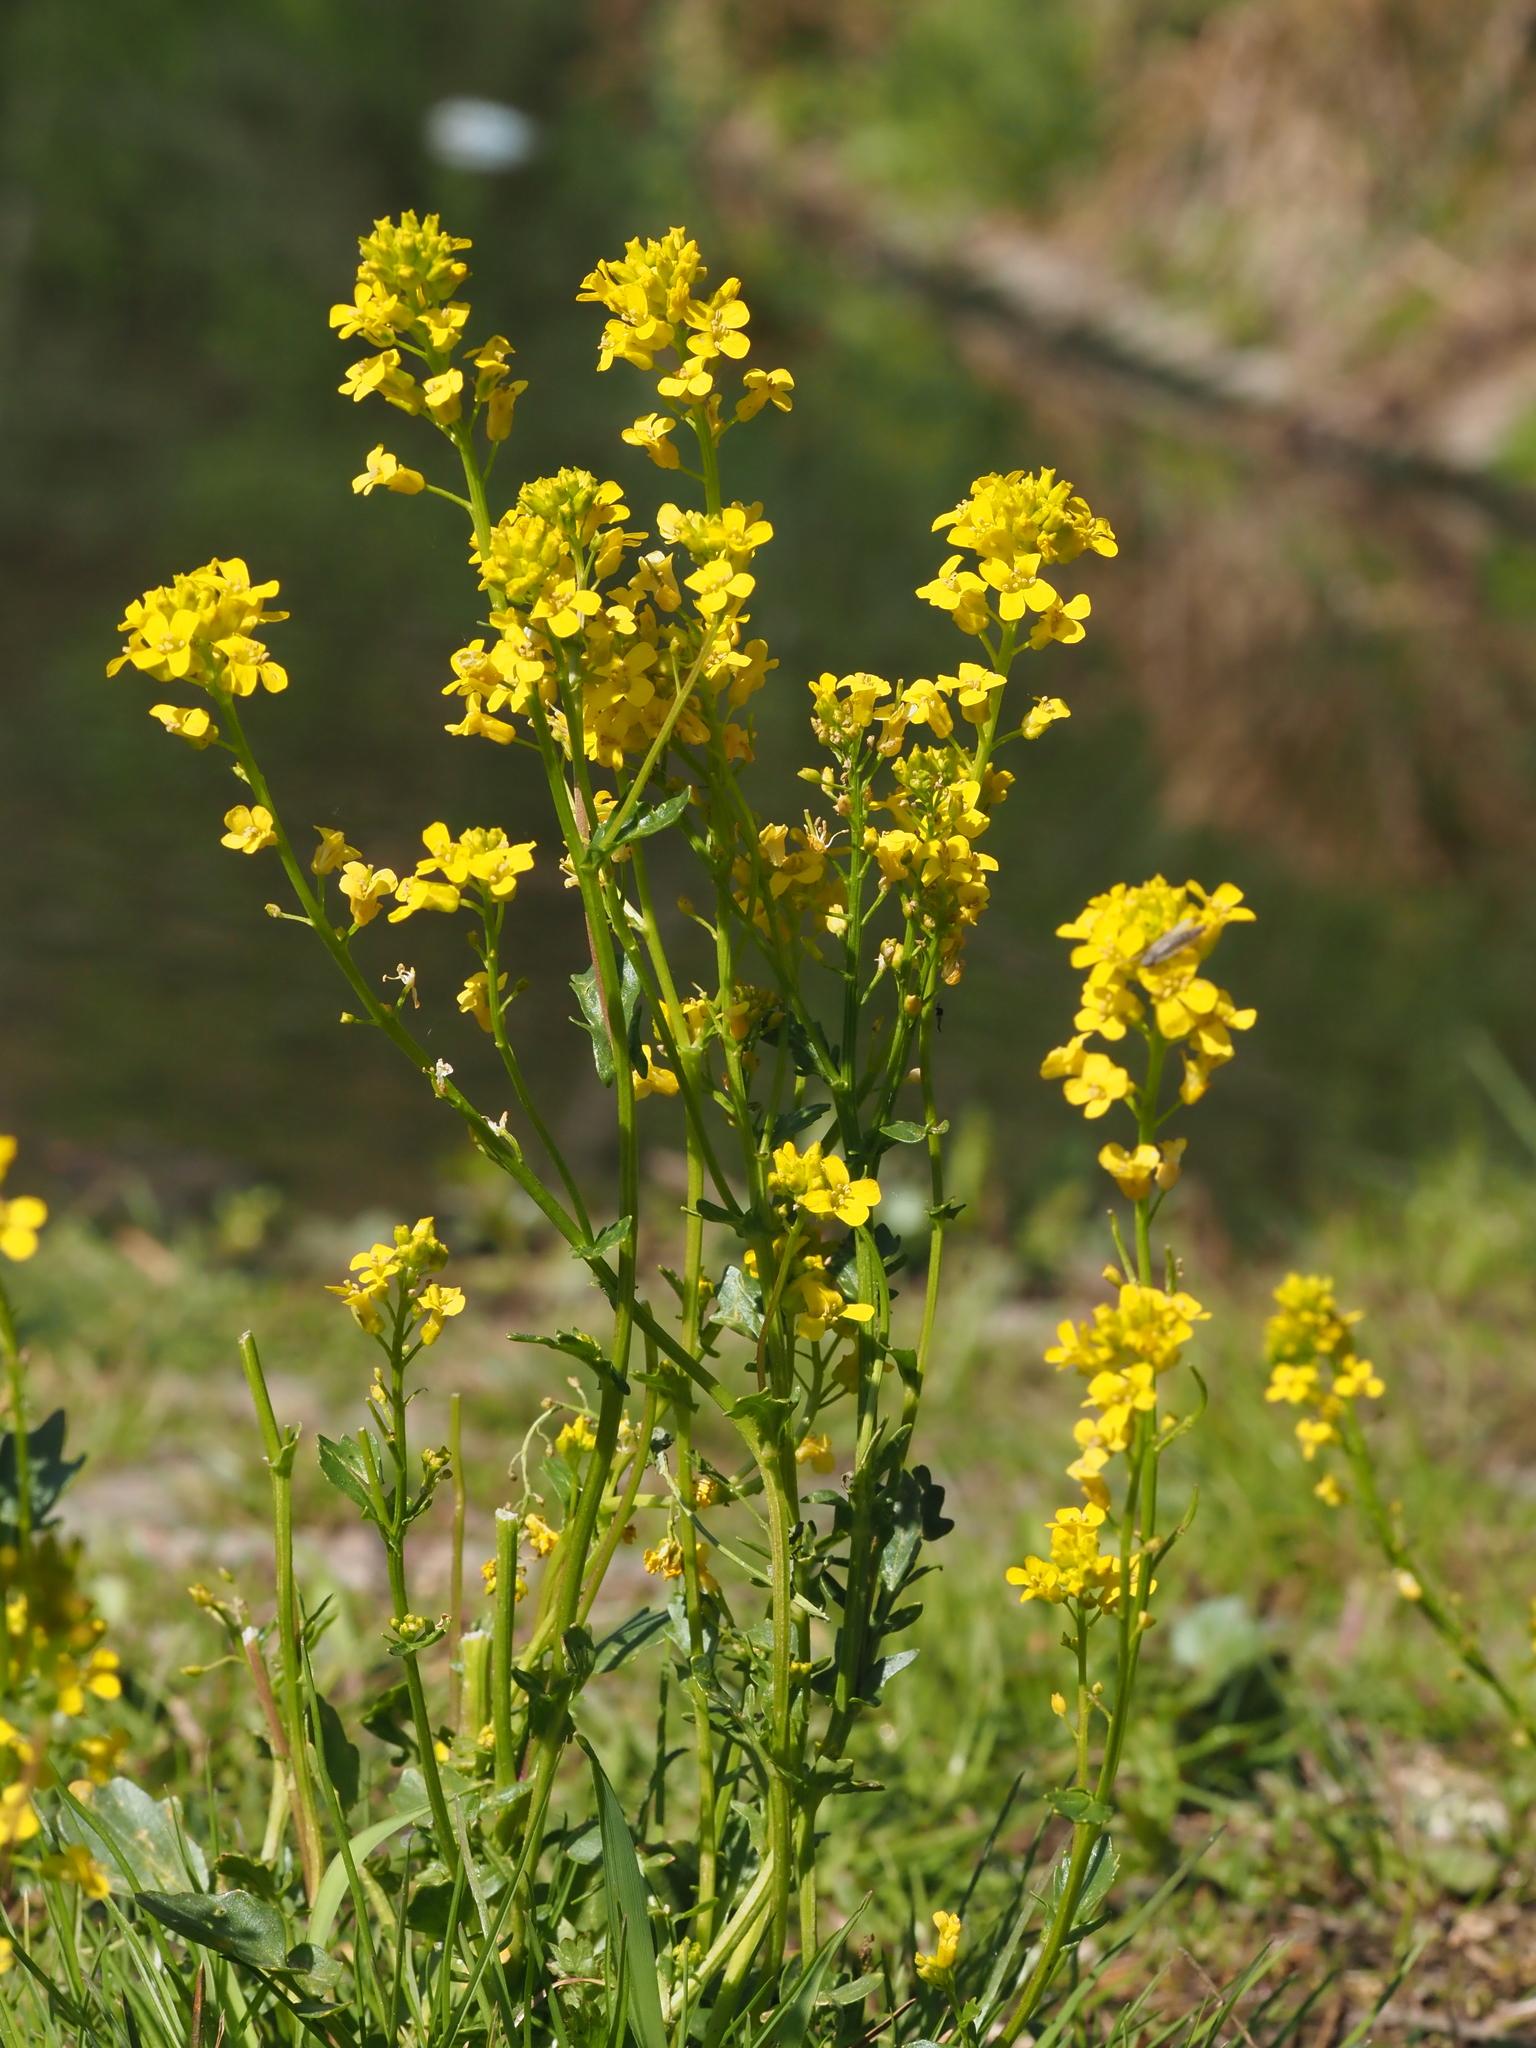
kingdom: Plantae
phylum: Tracheophyta
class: Magnoliopsida
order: Brassicales
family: Brassicaceae
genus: Barbarea
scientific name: Barbarea vulgaris
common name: Cressy-greens
